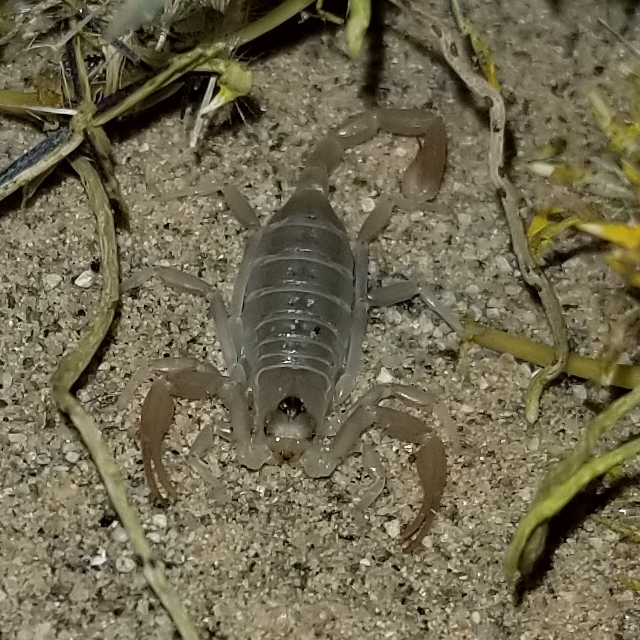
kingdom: Animalia
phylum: Arthropoda
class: Arachnida
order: Scorpiones
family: Vaejovidae
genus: Smeringurus
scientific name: Smeringurus mesaensis
